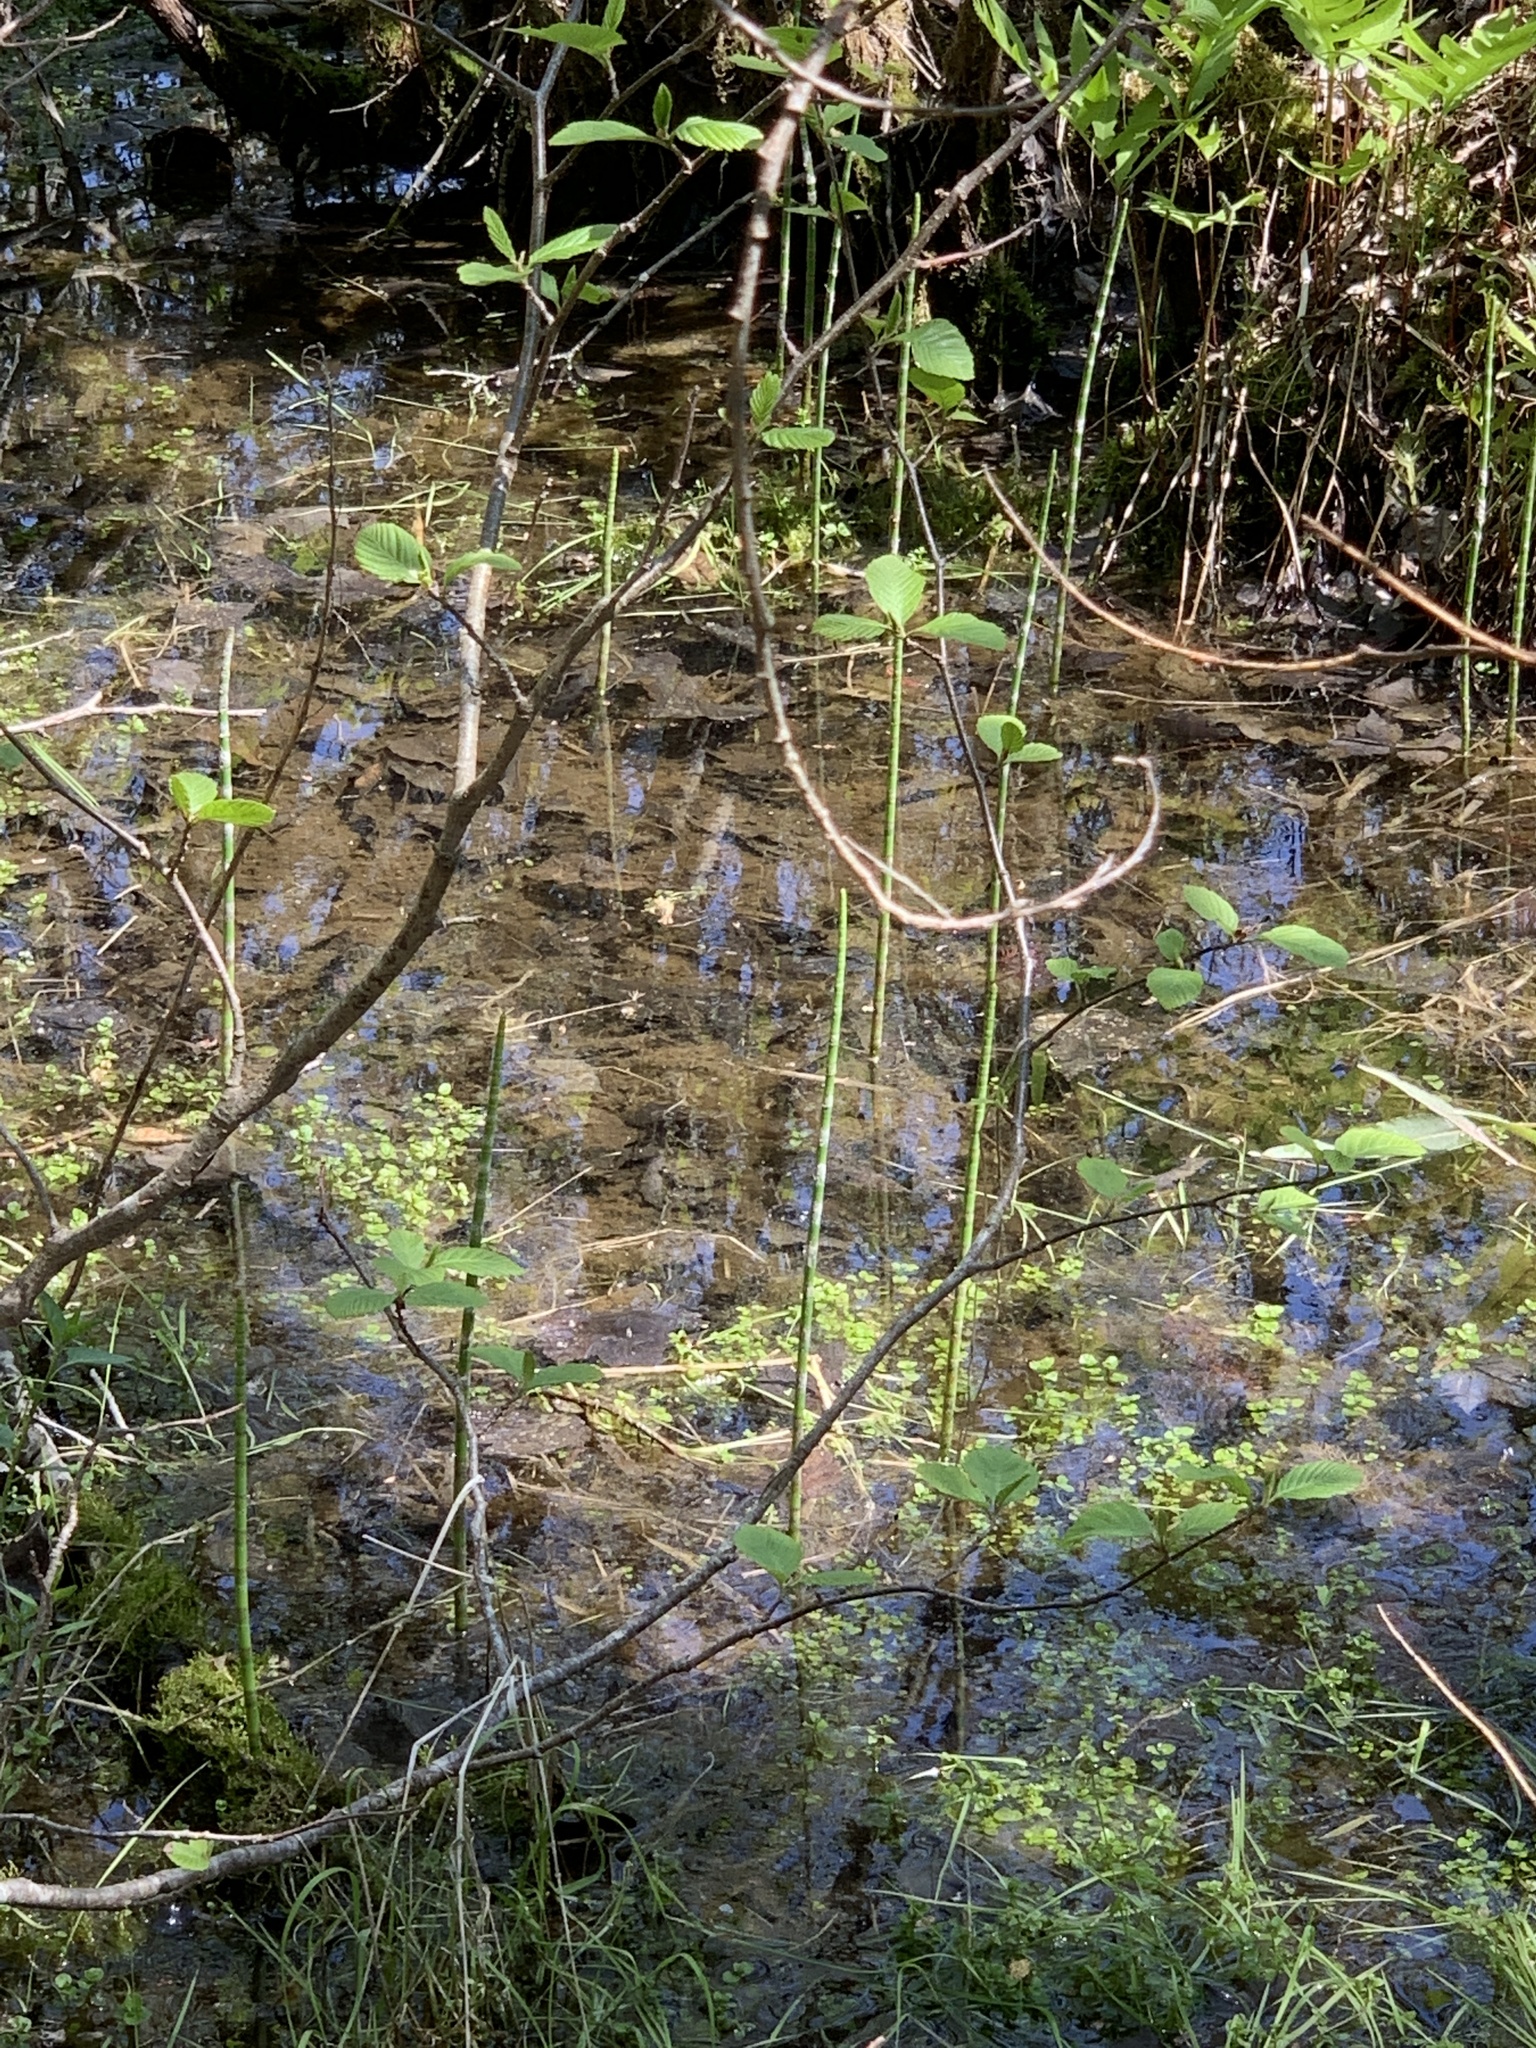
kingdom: Plantae
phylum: Tracheophyta
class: Polypodiopsida
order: Equisetales
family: Equisetaceae
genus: Equisetum
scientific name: Equisetum fluviatile
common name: Water horsetail
